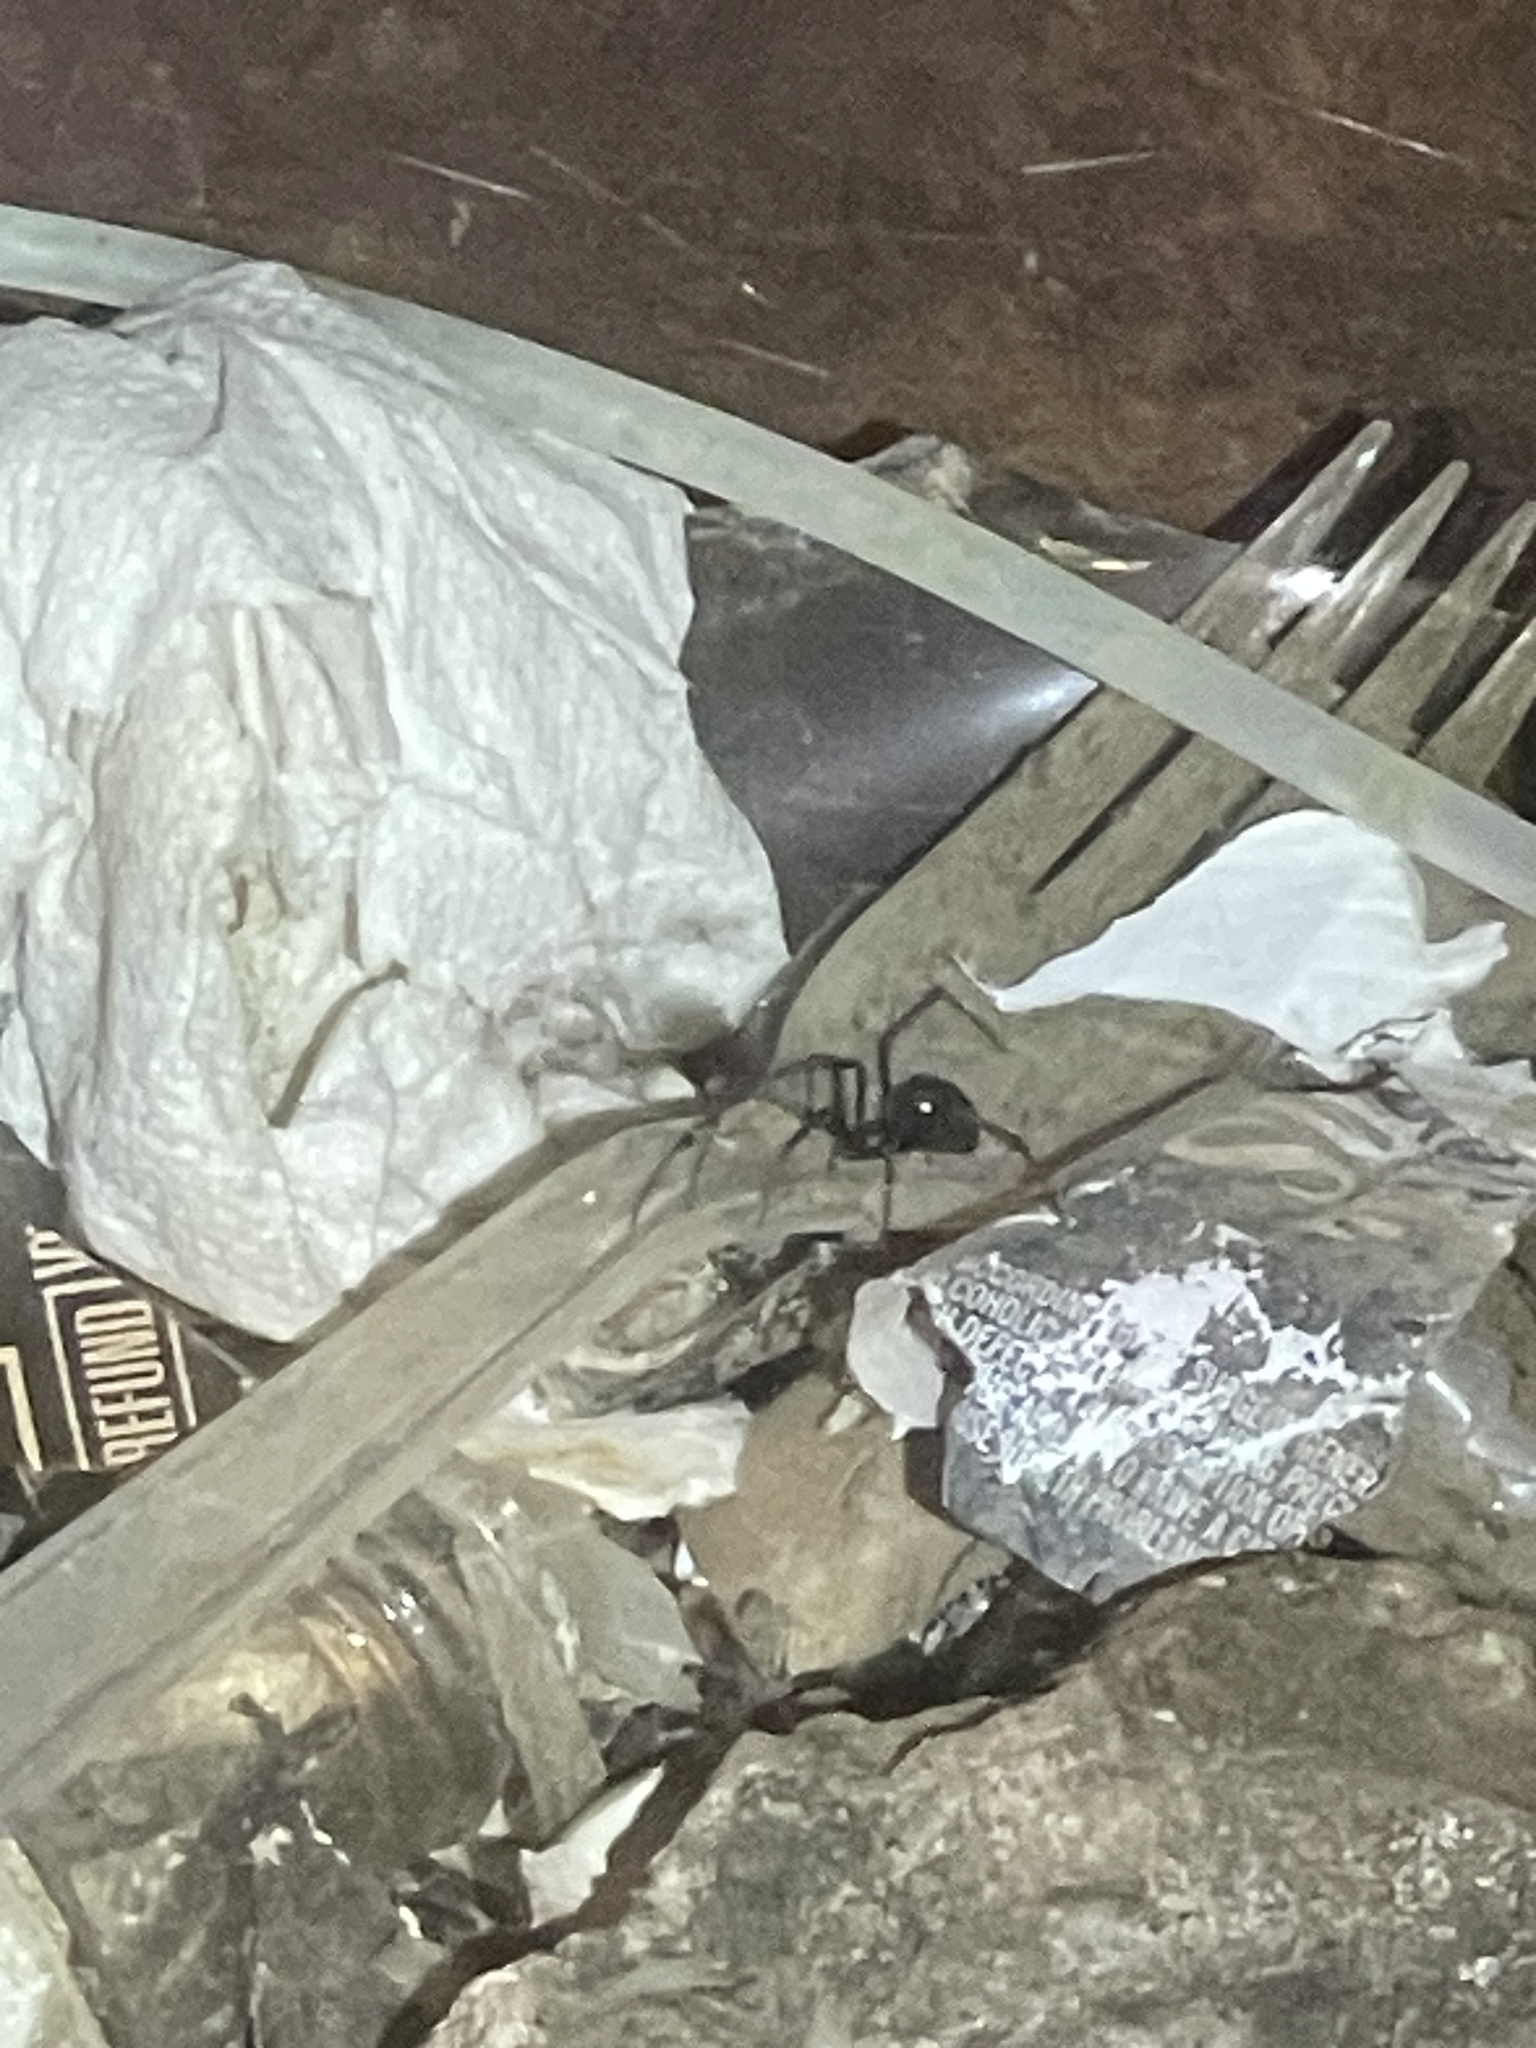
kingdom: Animalia
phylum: Arthropoda
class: Arachnida
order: Araneae
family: Theridiidae
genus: Steatoda
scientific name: Steatoda albomaculata
